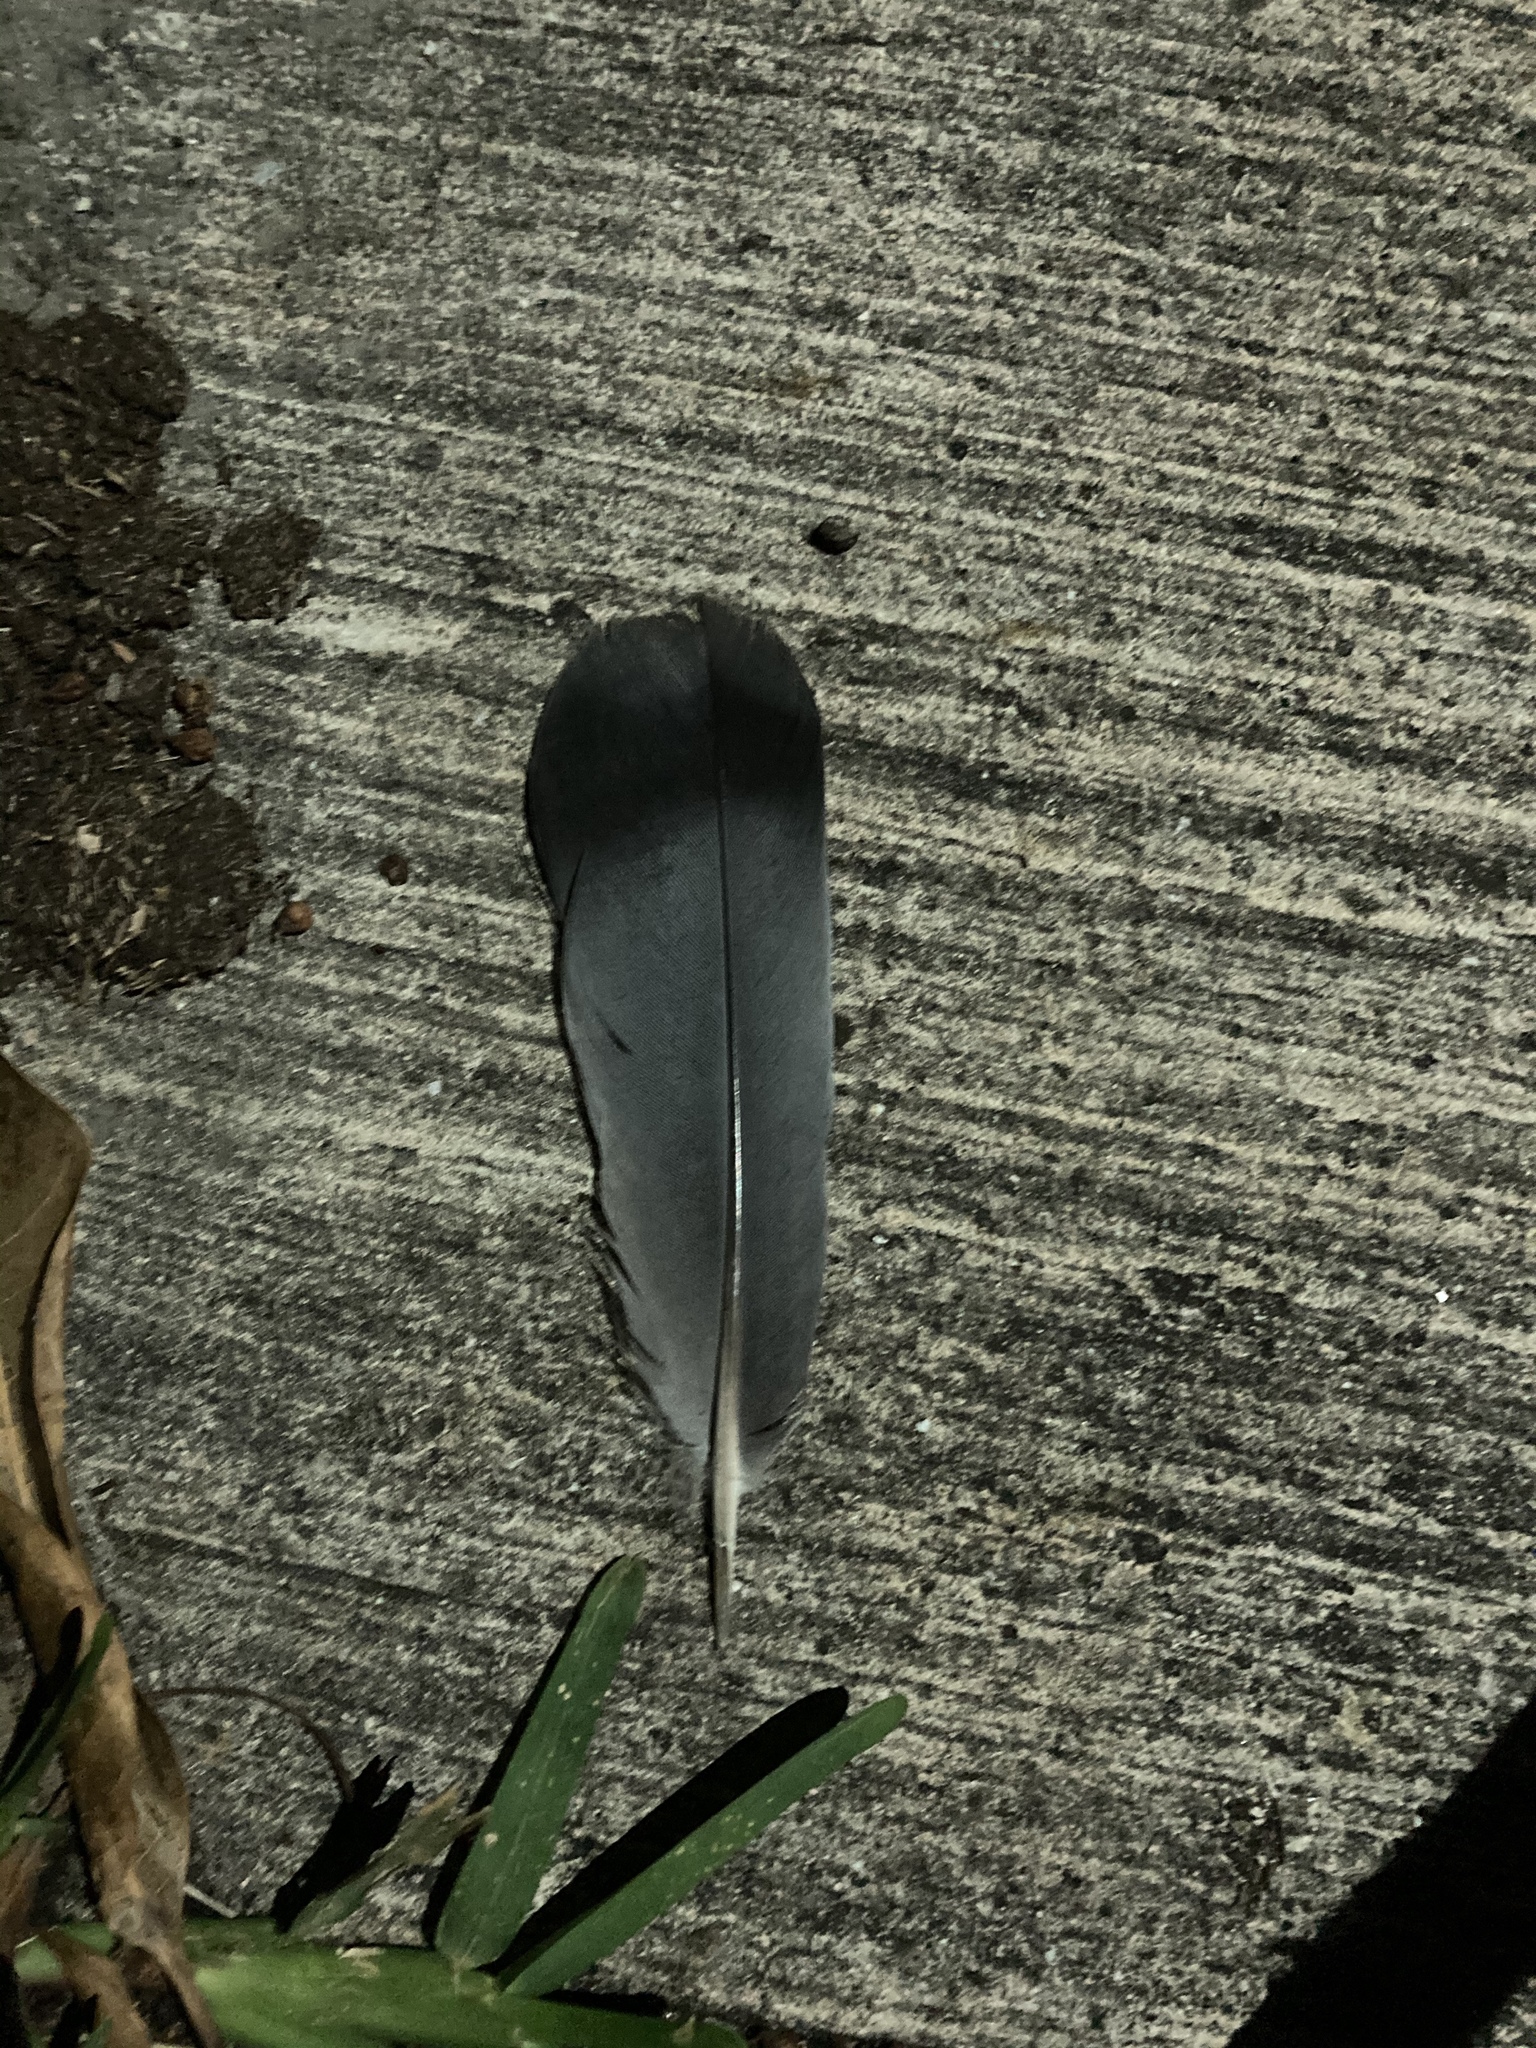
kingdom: Animalia
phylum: Chordata
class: Aves
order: Columbiformes
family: Columbidae
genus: Columba
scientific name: Columba livia
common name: Rock pigeon
